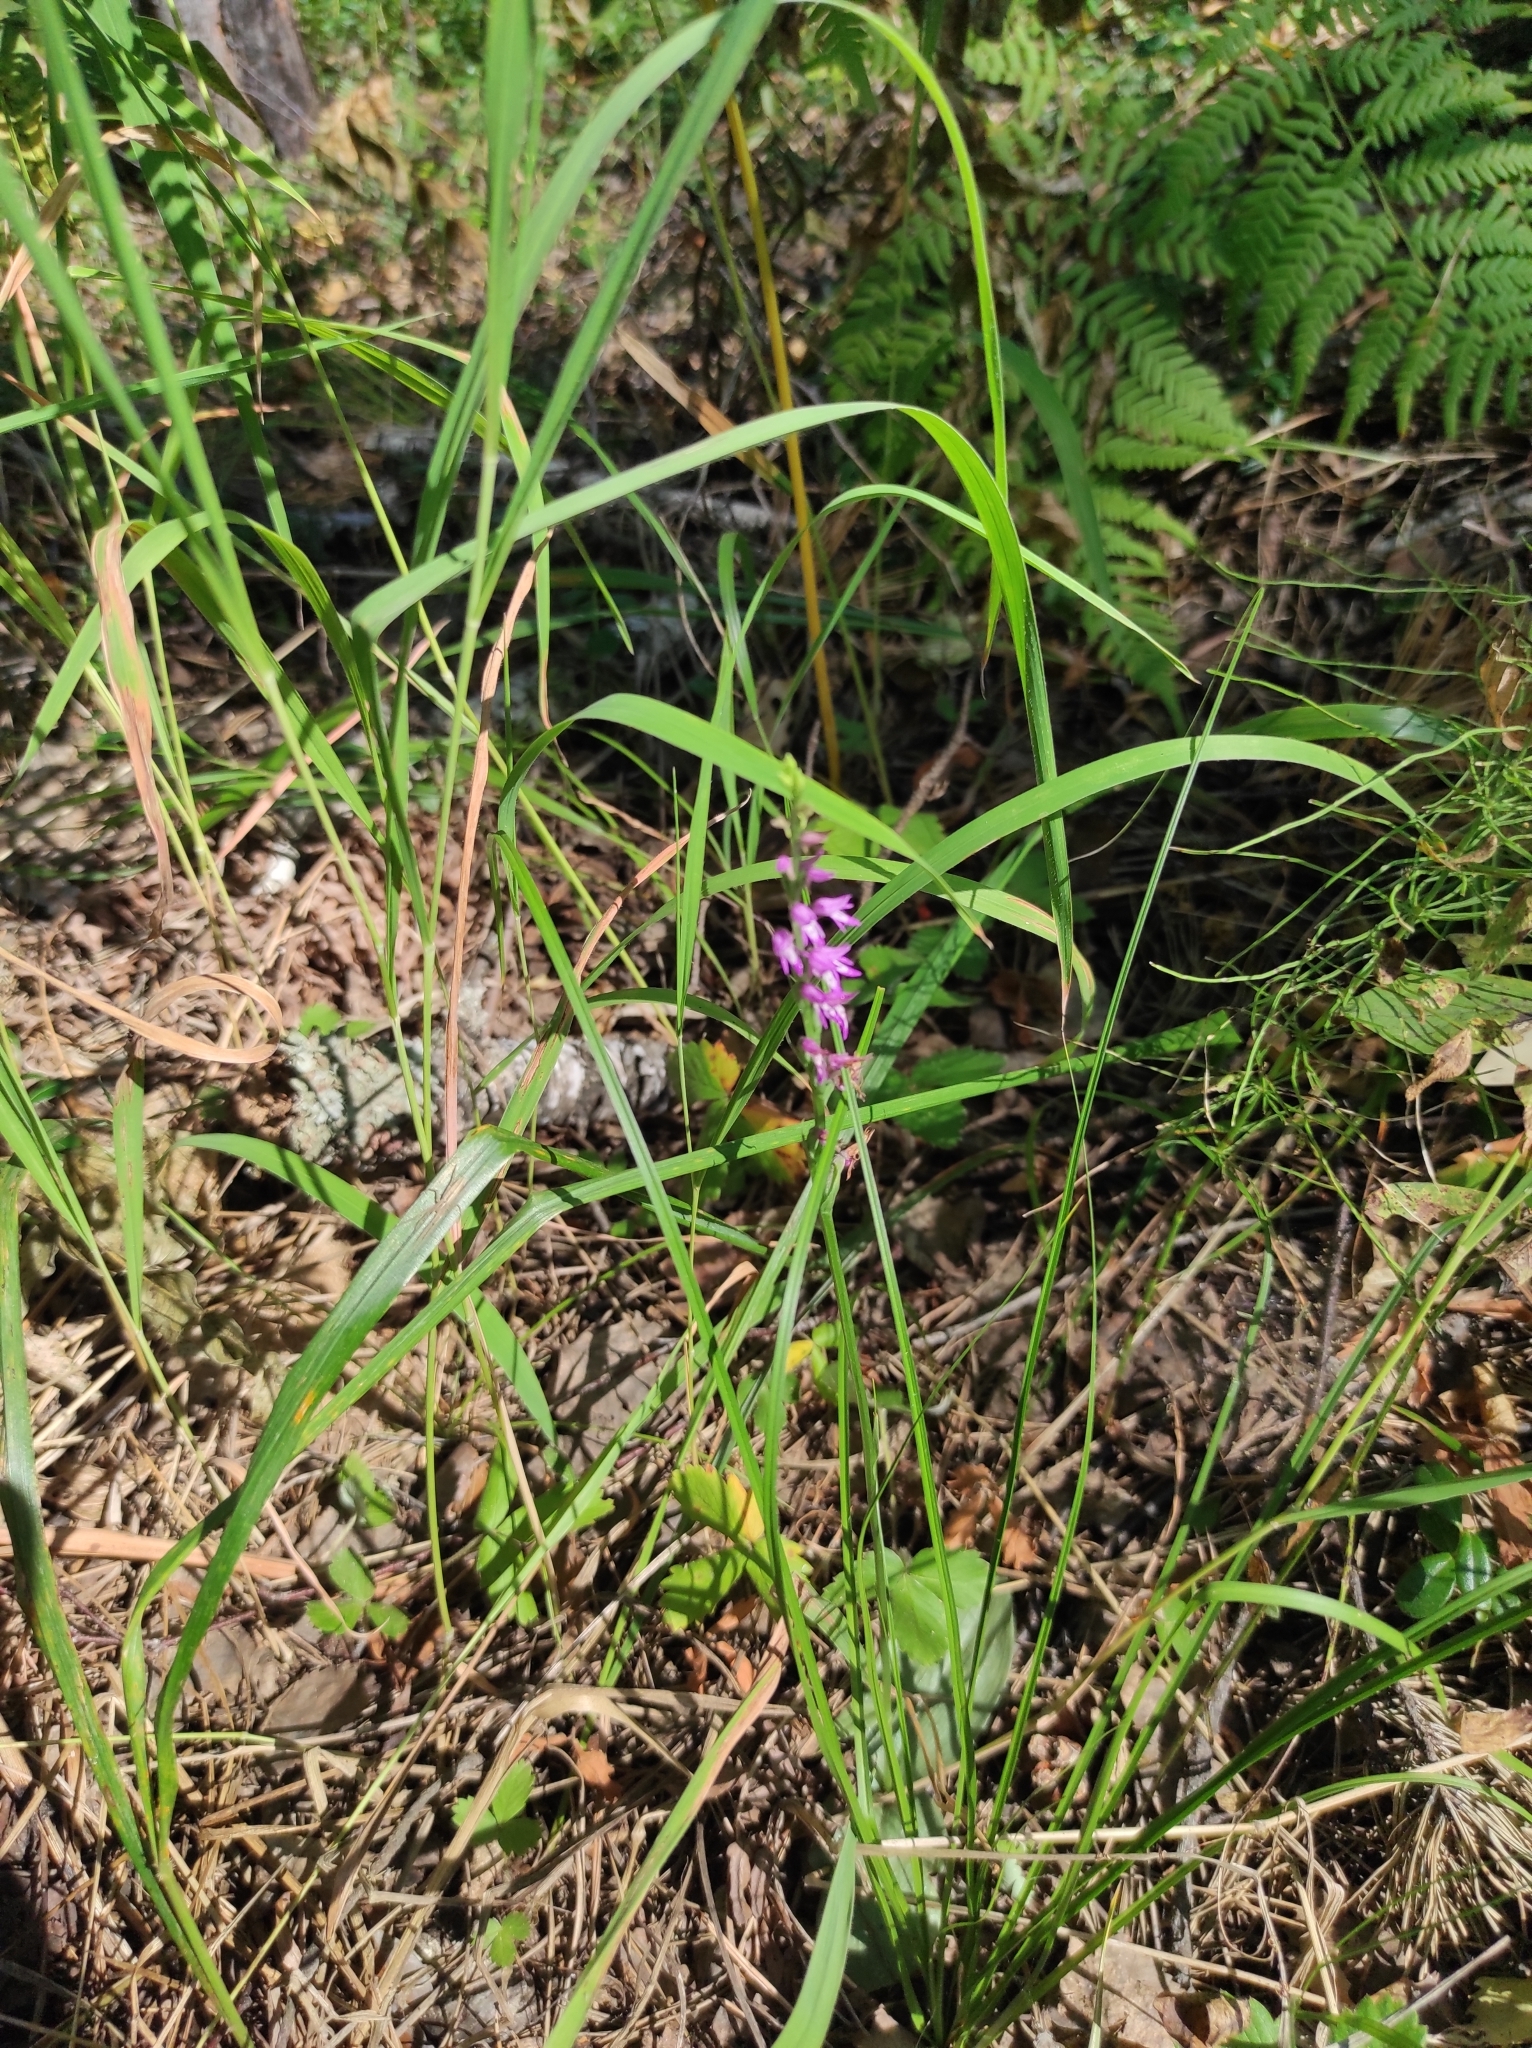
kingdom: Plantae
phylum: Tracheophyta
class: Liliopsida
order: Asparagales
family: Orchidaceae
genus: Hemipilia
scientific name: Hemipilia cucullata
